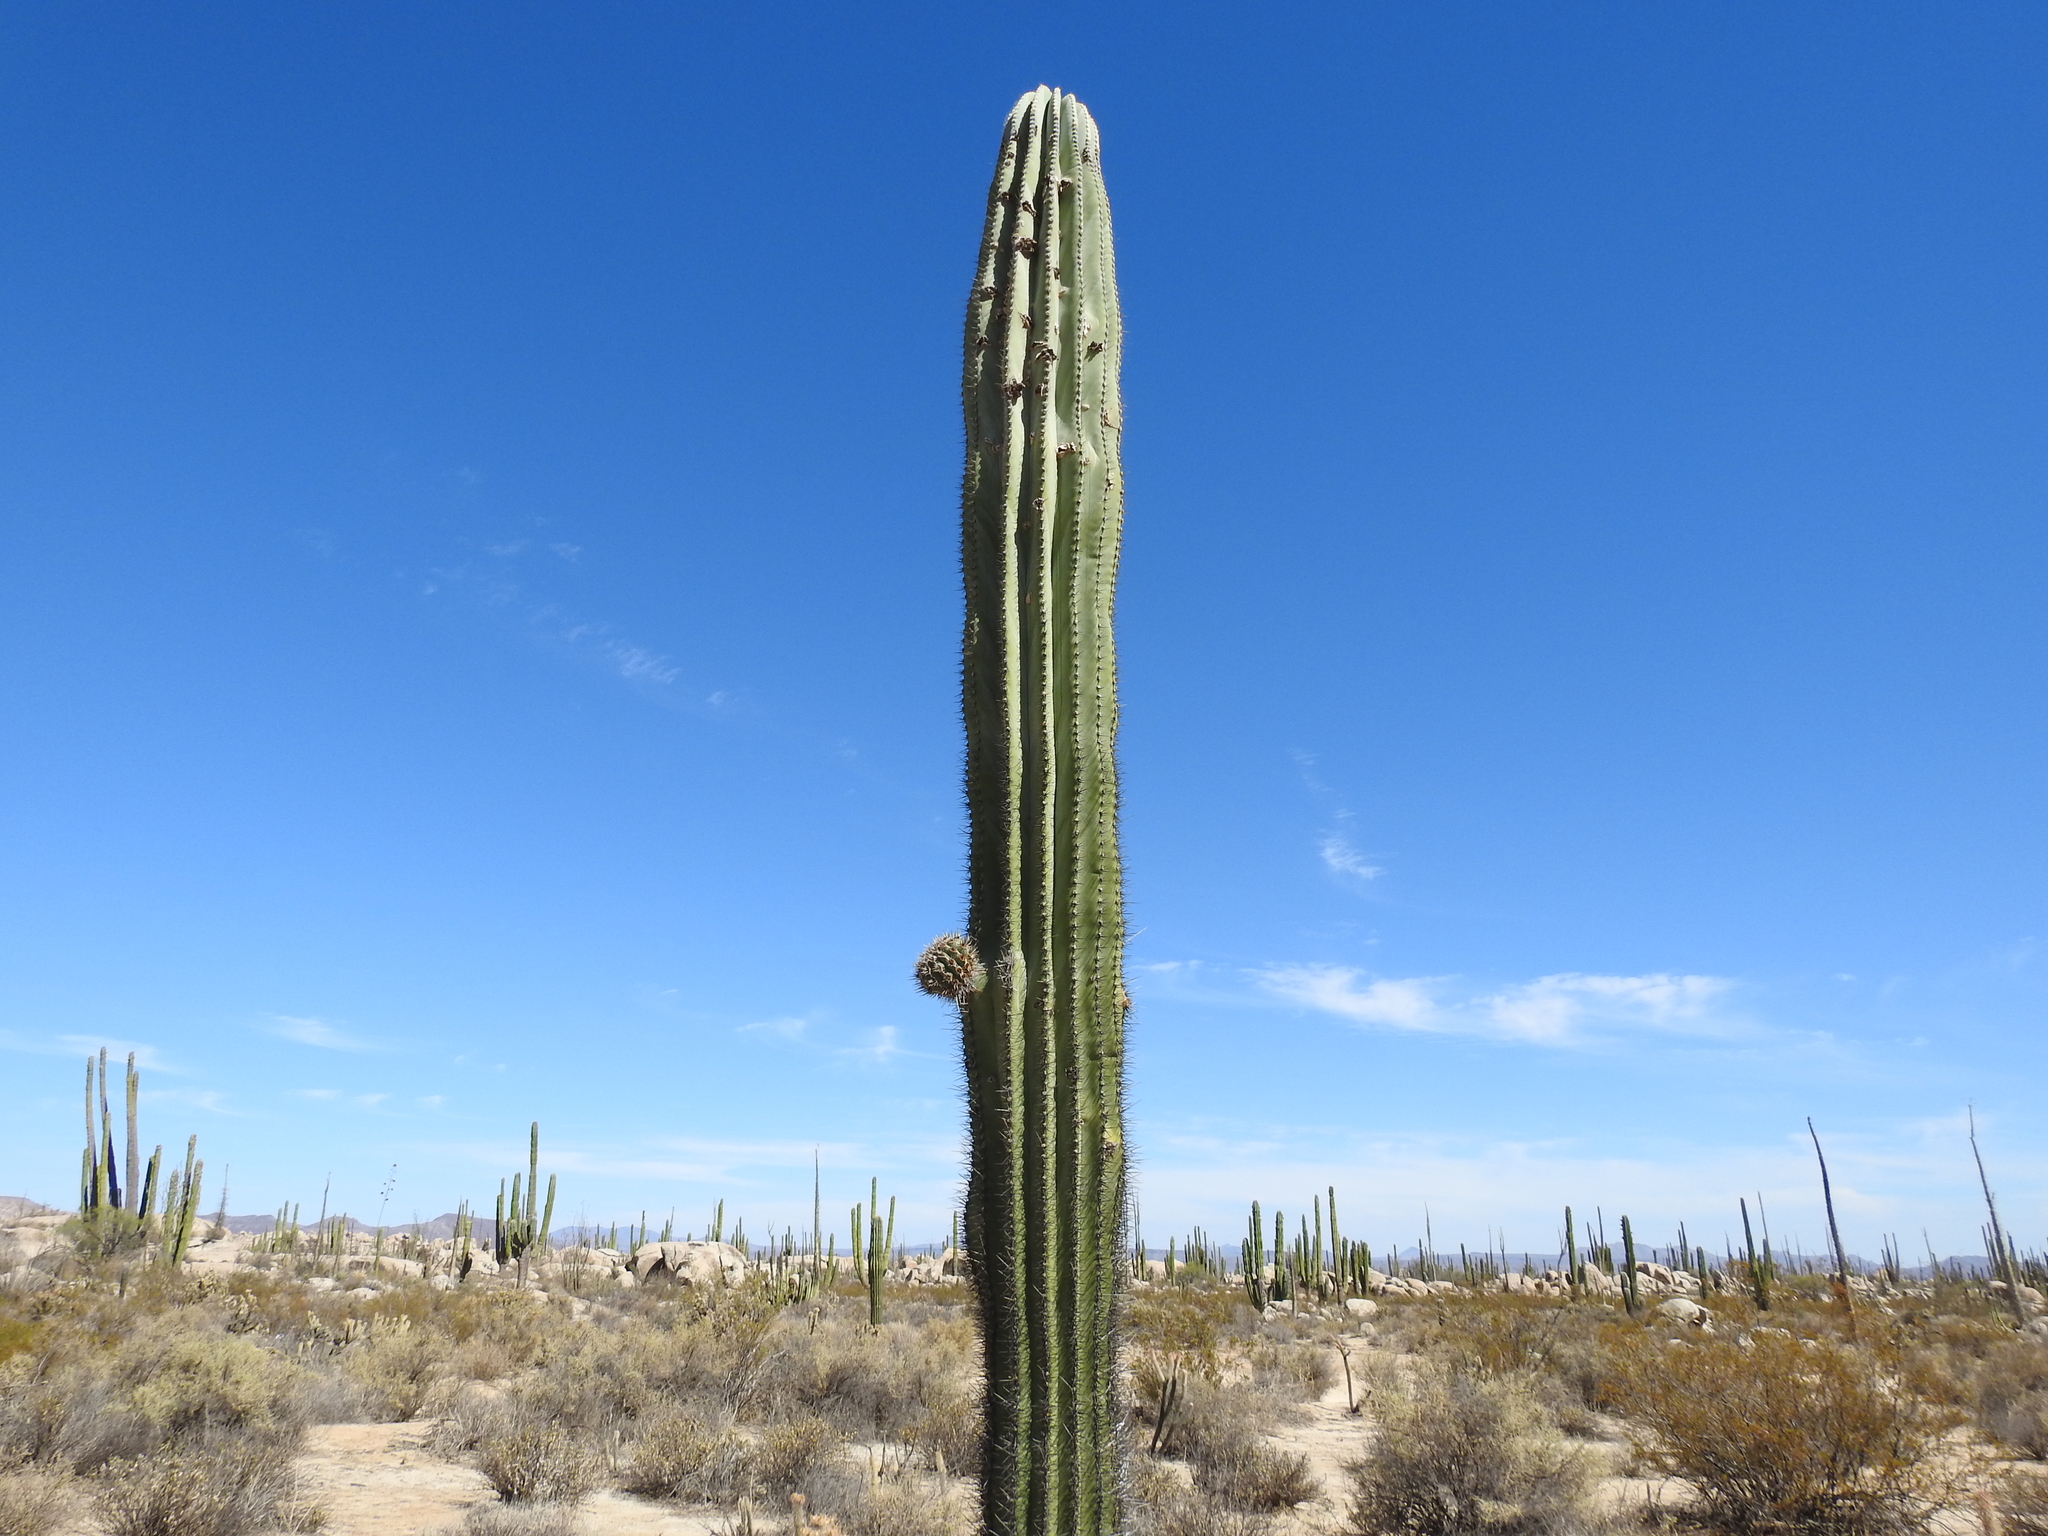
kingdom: Plantae
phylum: Tracheophyta
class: Magnoliopsida
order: Caryophyllales
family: Cactaceae
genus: Pachycereus
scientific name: Pachycereus pringlei
